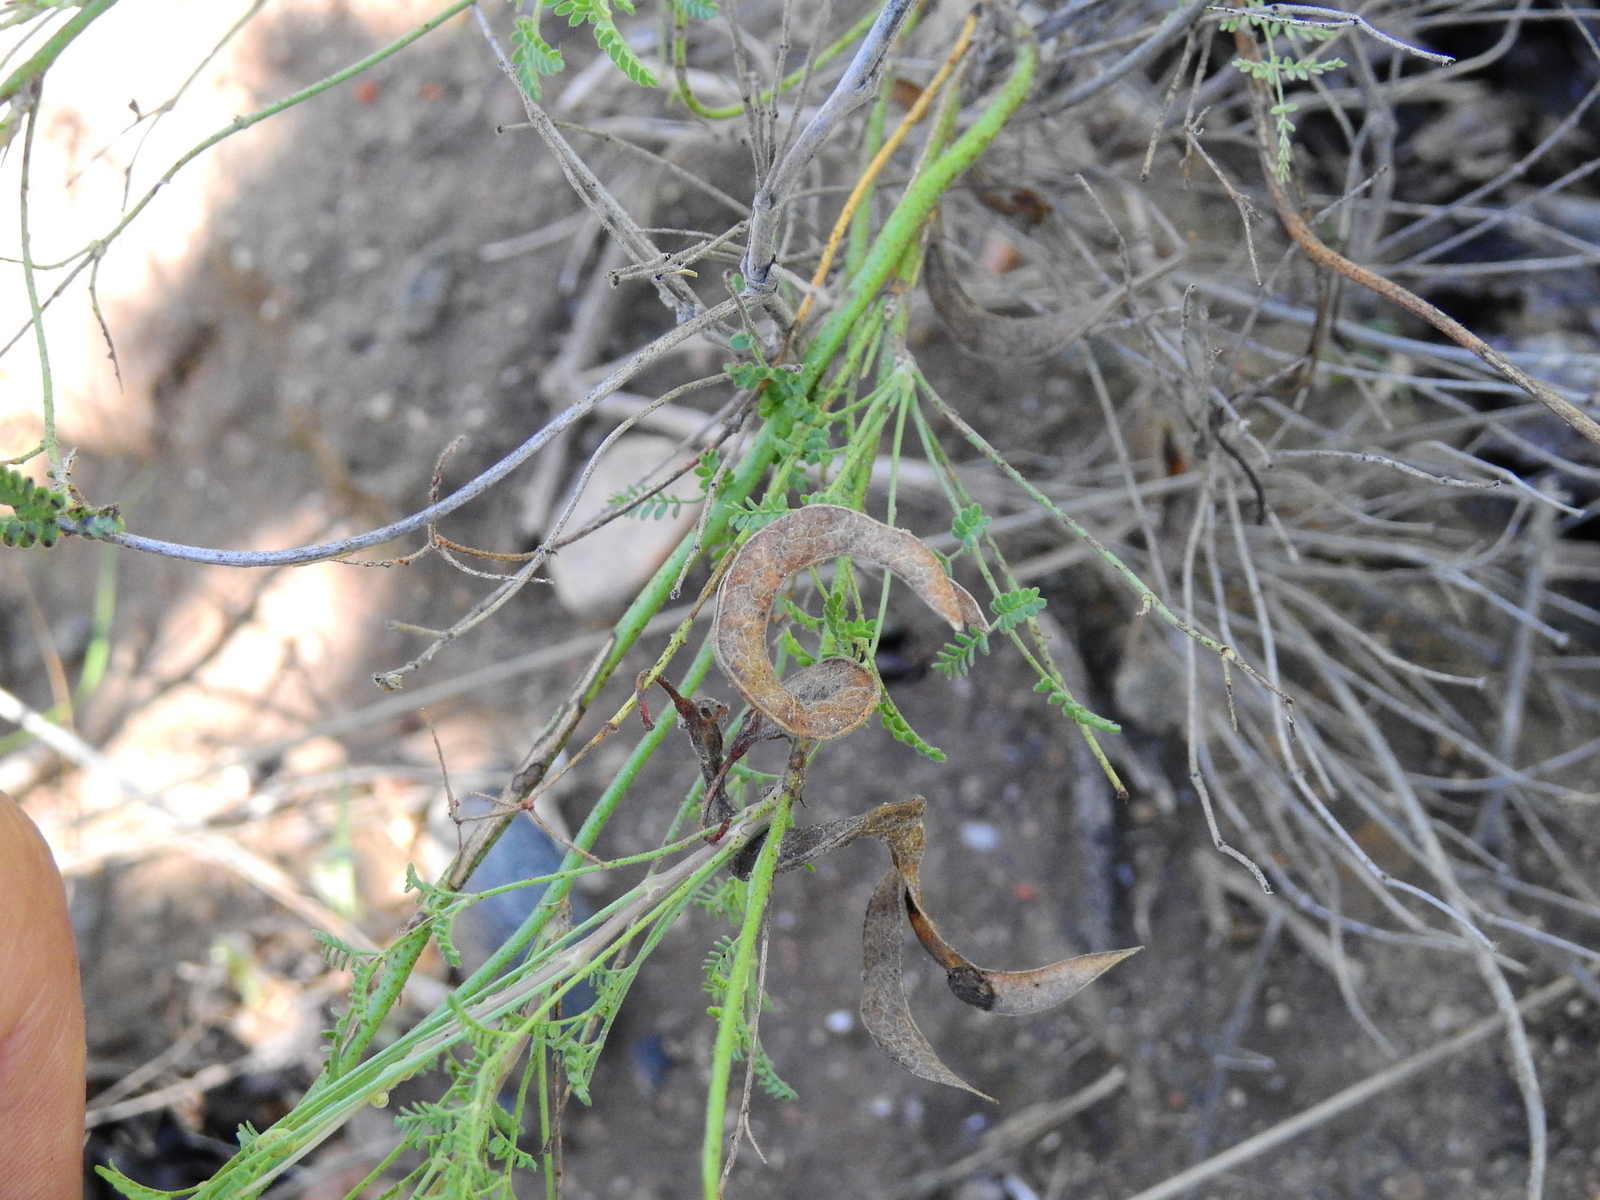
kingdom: Plantae
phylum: Tracheophyta
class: Magnoliopsida
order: Fabales
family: Fabaceae
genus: Hoffmannseggia
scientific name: Hoffmannseggia erecta
